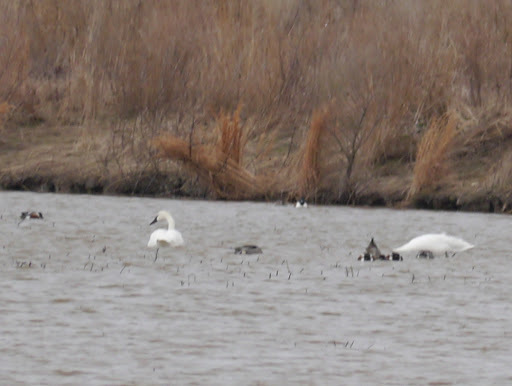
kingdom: Animalia
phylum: Chordata
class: Aves
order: Anseriformes
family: Anatidae
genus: Cygnus
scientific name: Cygnus columbianus
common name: Tundra swan
